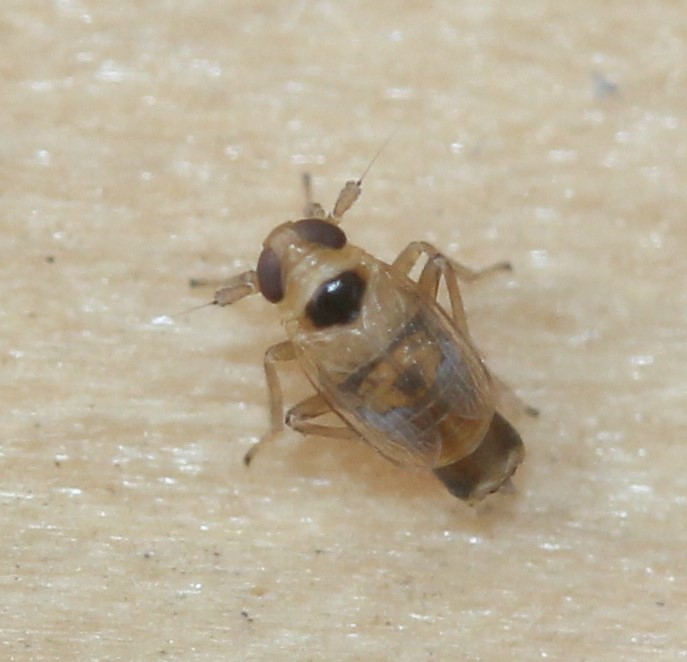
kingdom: Animalia
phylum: Arthropoda
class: Insecta
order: Hemiptera
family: Delphacidae
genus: Yukonodelphax
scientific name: Yukonodelphax bifurca
